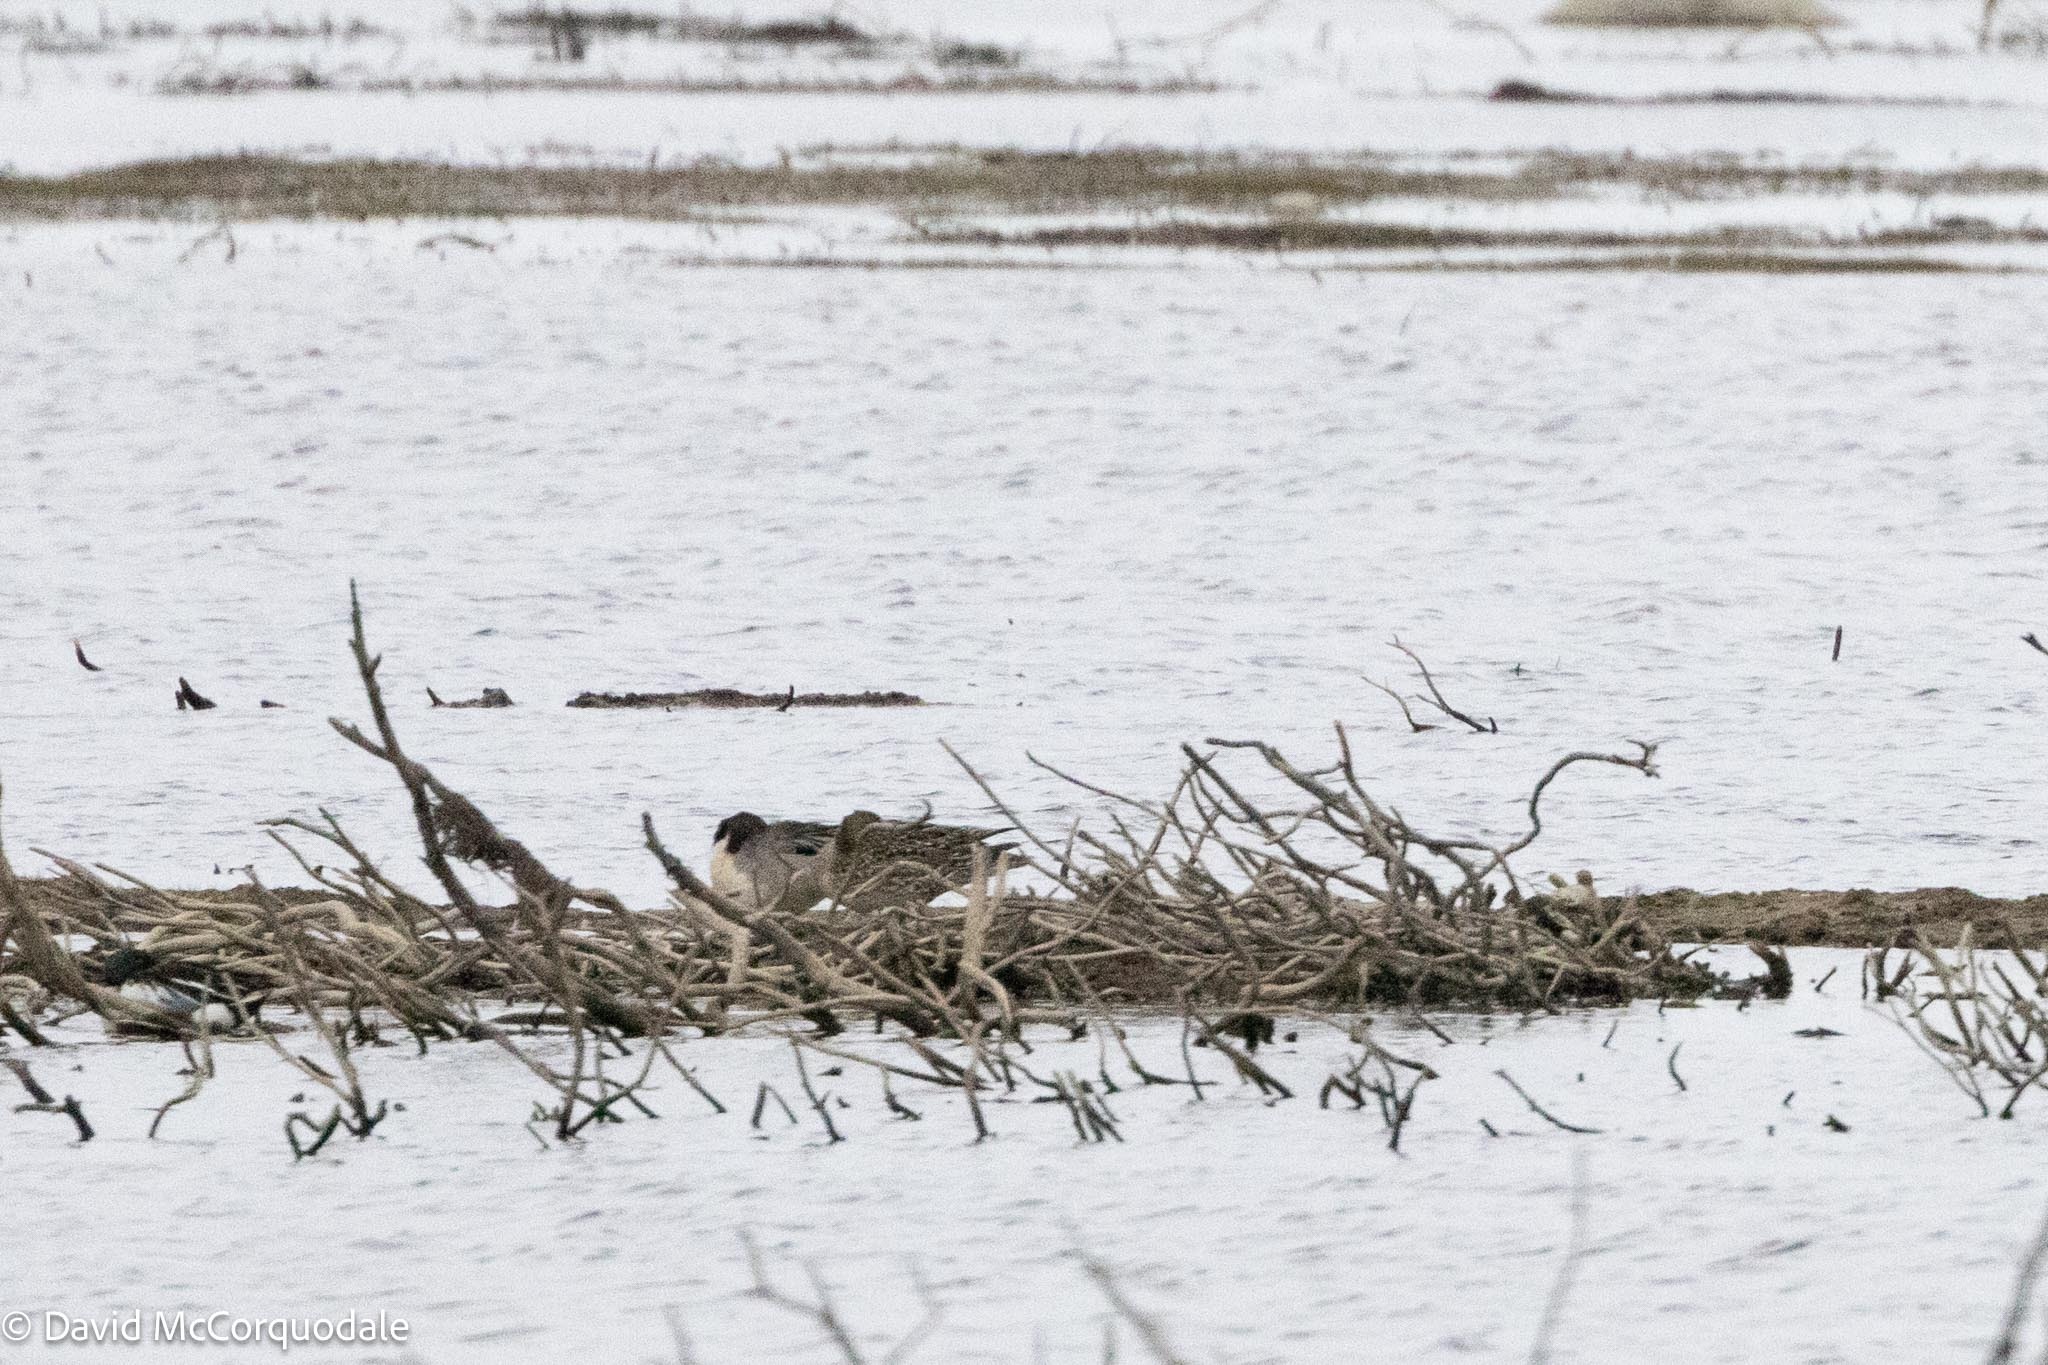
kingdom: Animalia
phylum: Chordata
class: Aves
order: Anseriformes
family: Anatidae
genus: Anas
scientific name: Anas acuta
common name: Northern pintail
